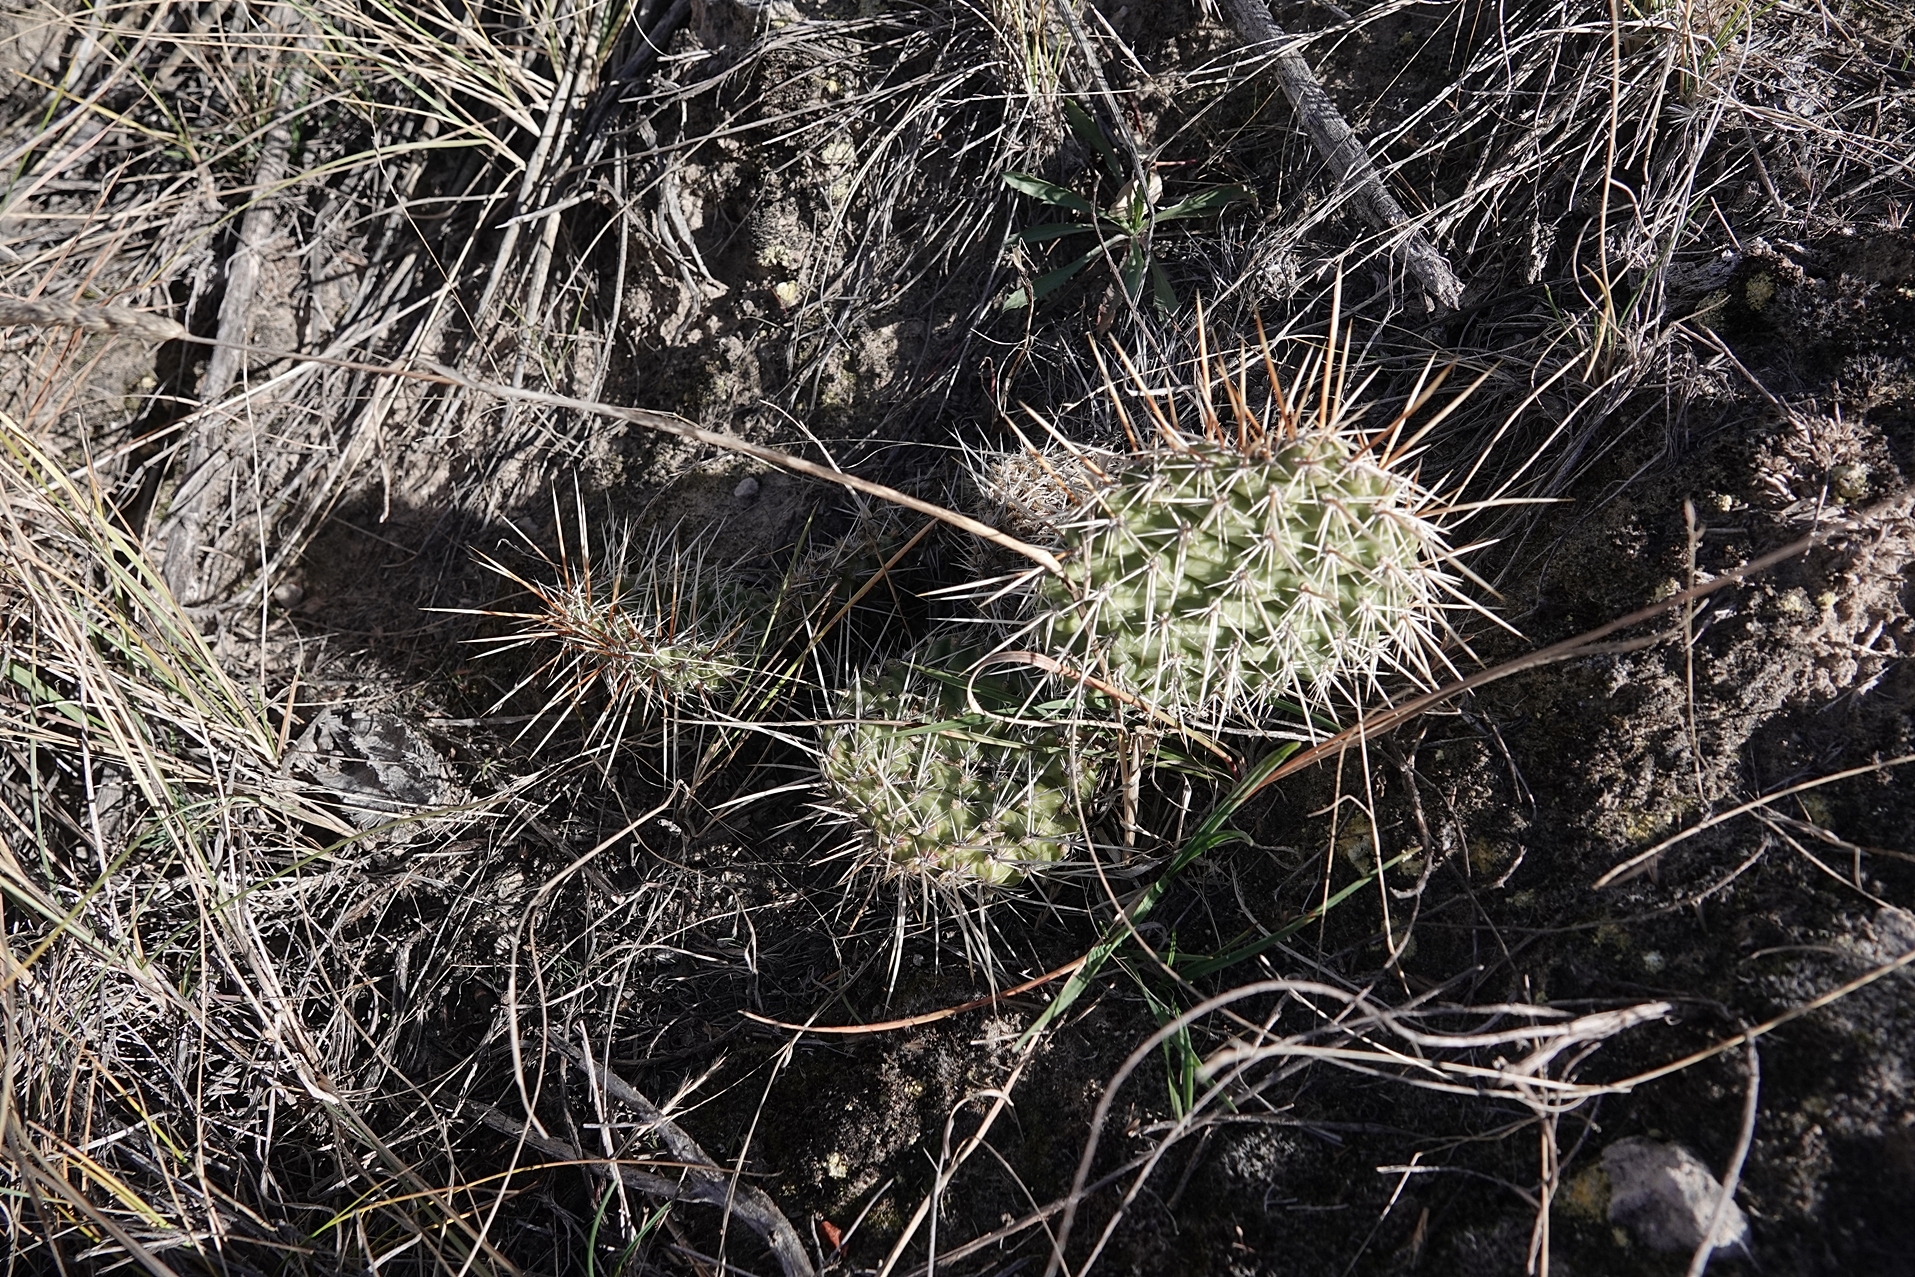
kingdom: Plantae
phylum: Tracheophyta
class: Magnoliopsida
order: Caryophyllales
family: Cactaceae
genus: Opuntia
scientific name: Opuntia polyacantha
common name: Plains prickly-pear
